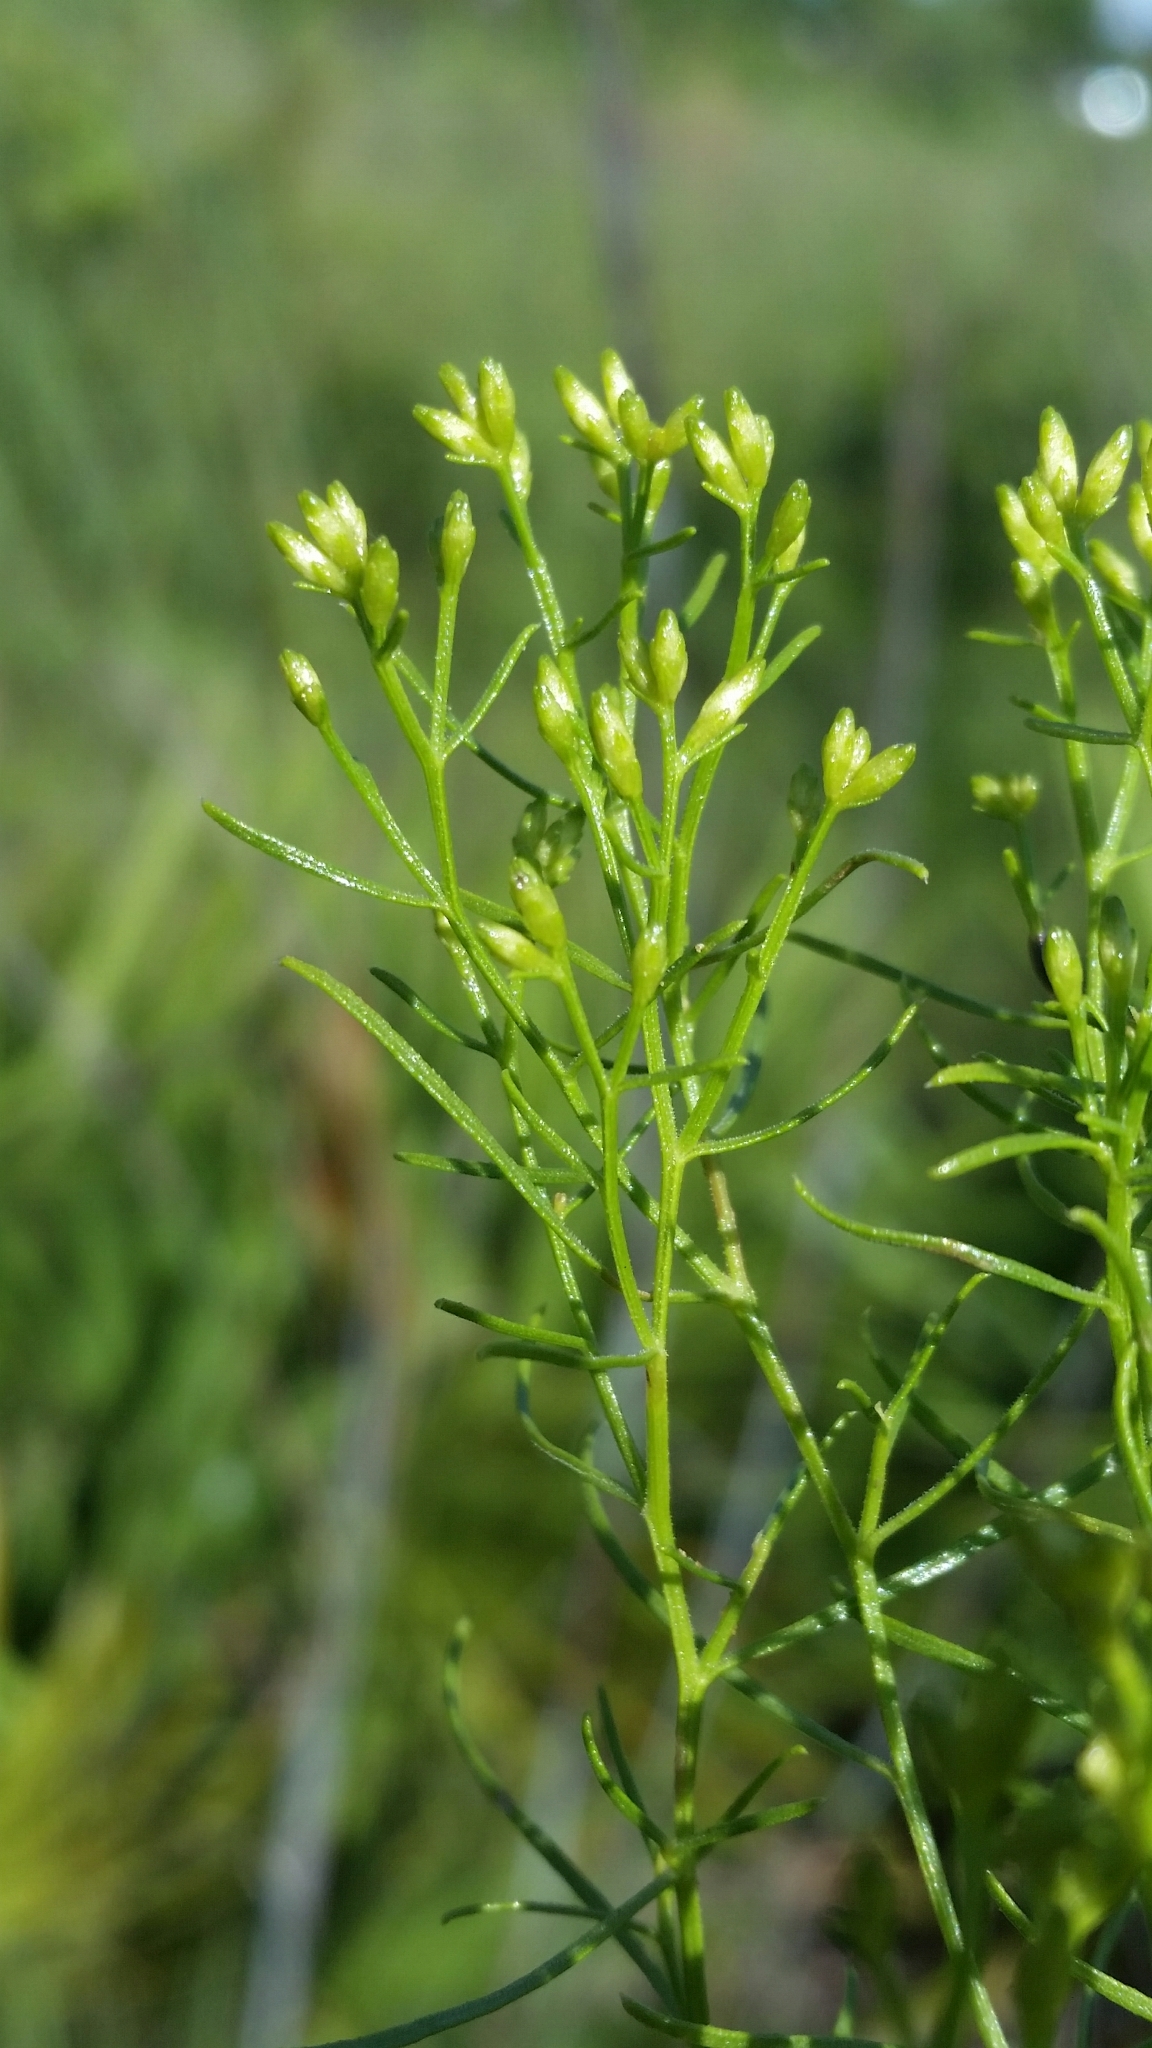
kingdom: Plantae
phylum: Tracheophyta
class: Magnoliopsida
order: Asterales
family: Asteraceae
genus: Euthamia
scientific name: Euthamia caroliniana
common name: Coastal plain goldentop
